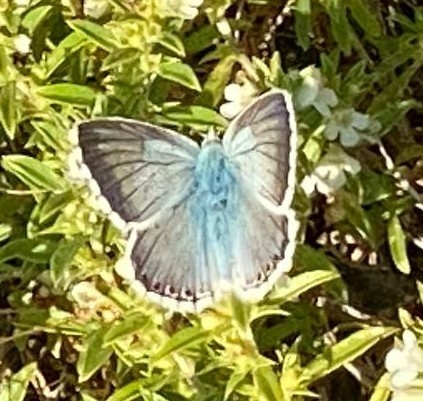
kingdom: Animalia
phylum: Arthropoda
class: Insecta
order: Lepidoptera
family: Lycaenidae
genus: Lysandra
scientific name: Lysandra coridon
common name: Chalkhill blue
